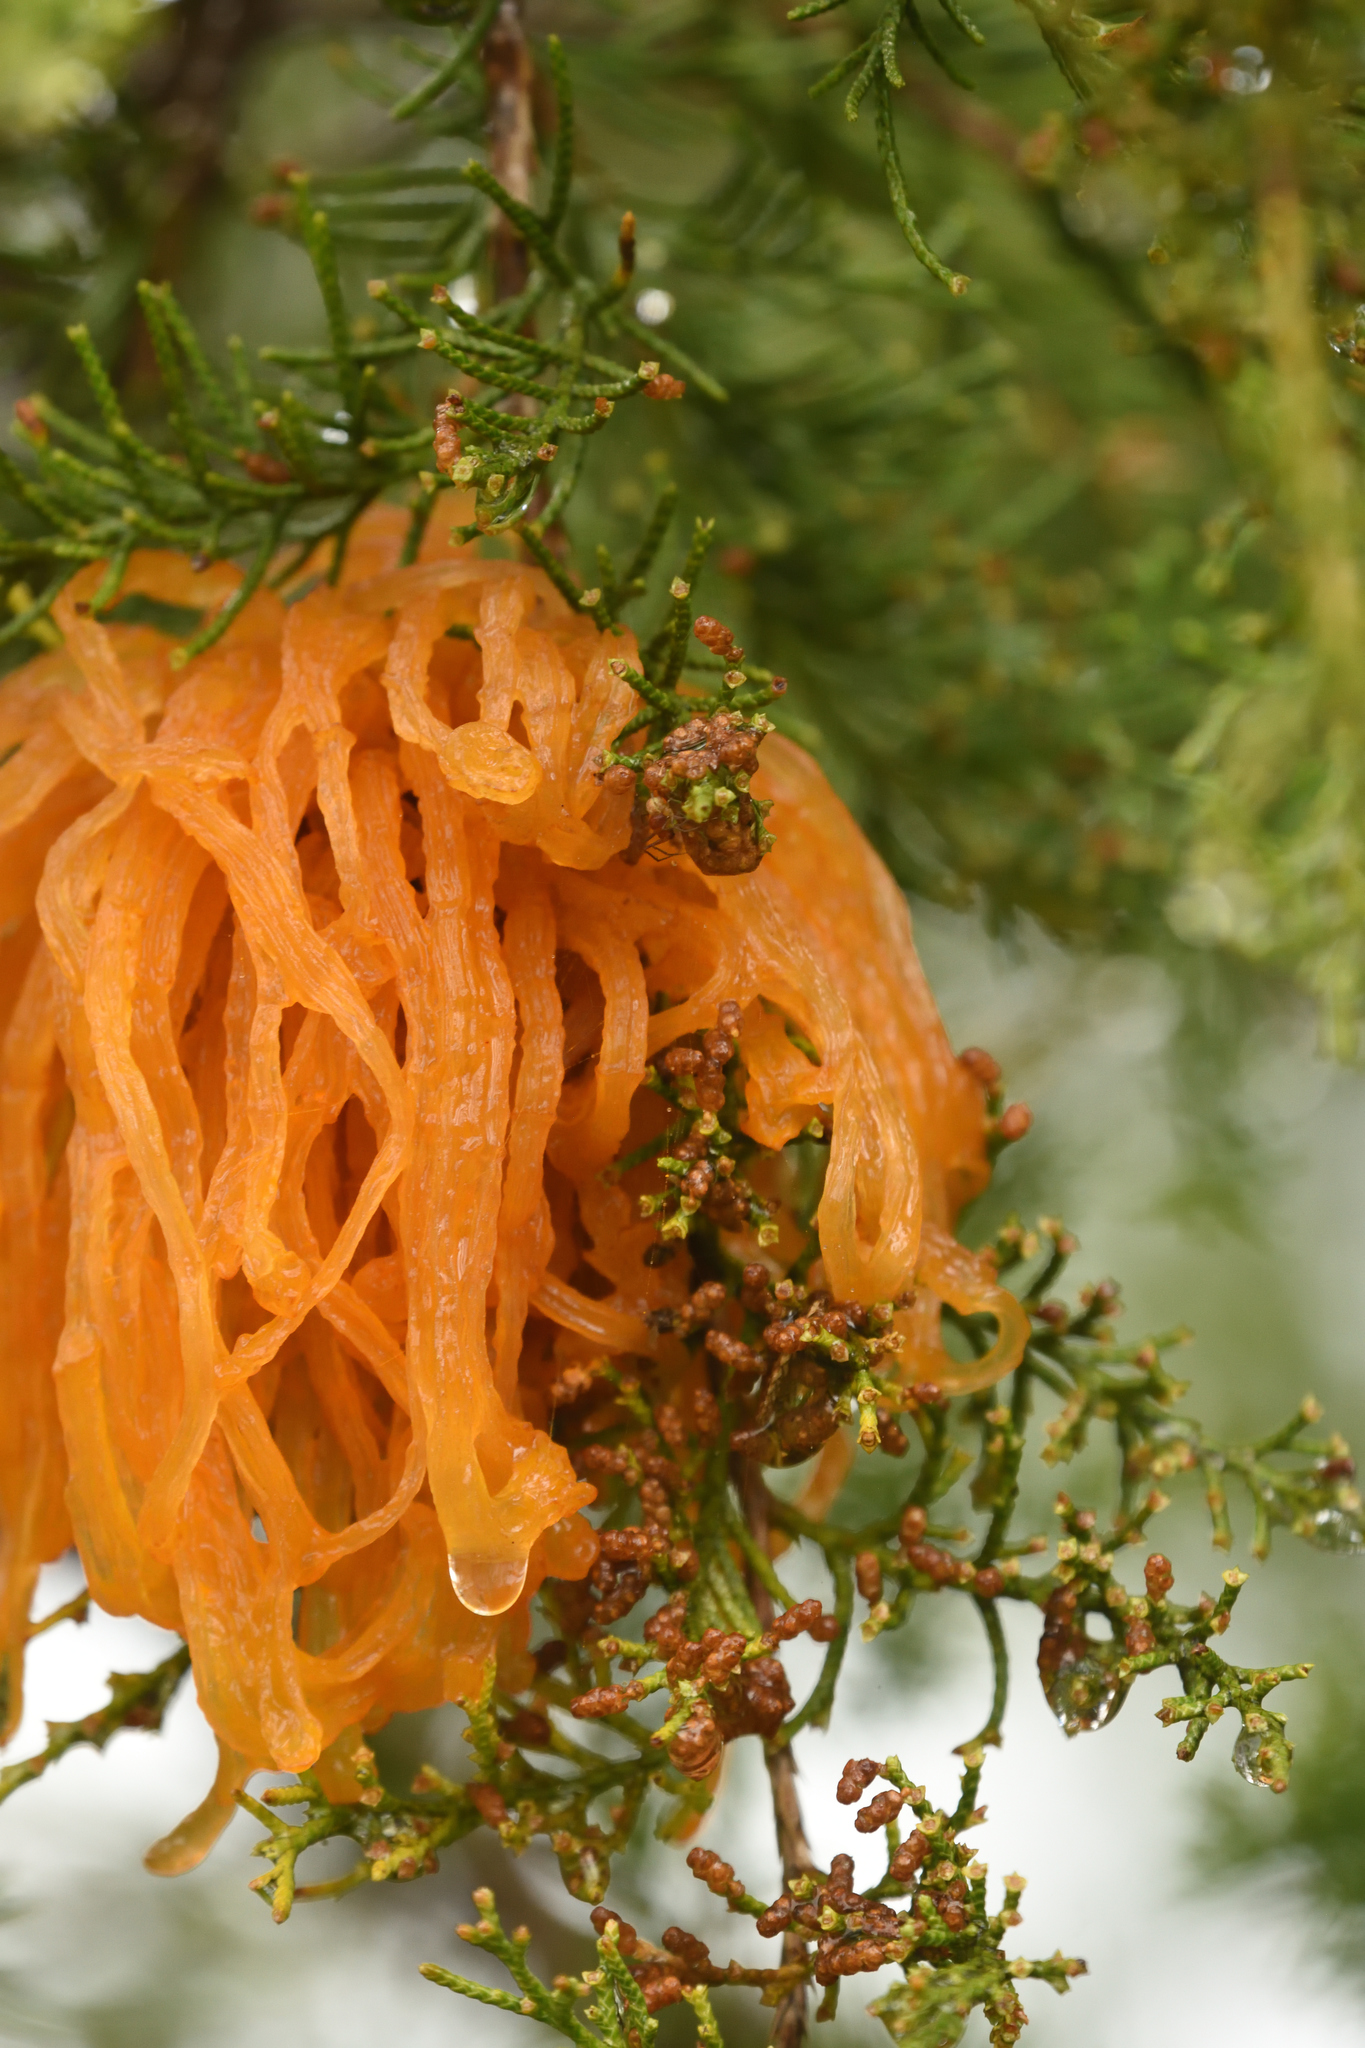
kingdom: Fungi
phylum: Basidiomycota
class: Pucciniomycetes
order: Pucciniales
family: Gymnosporangiaceae
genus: Gymnosporangium
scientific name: Gymnosporangium juniperi-virginianae
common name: Juniper-apple rust
